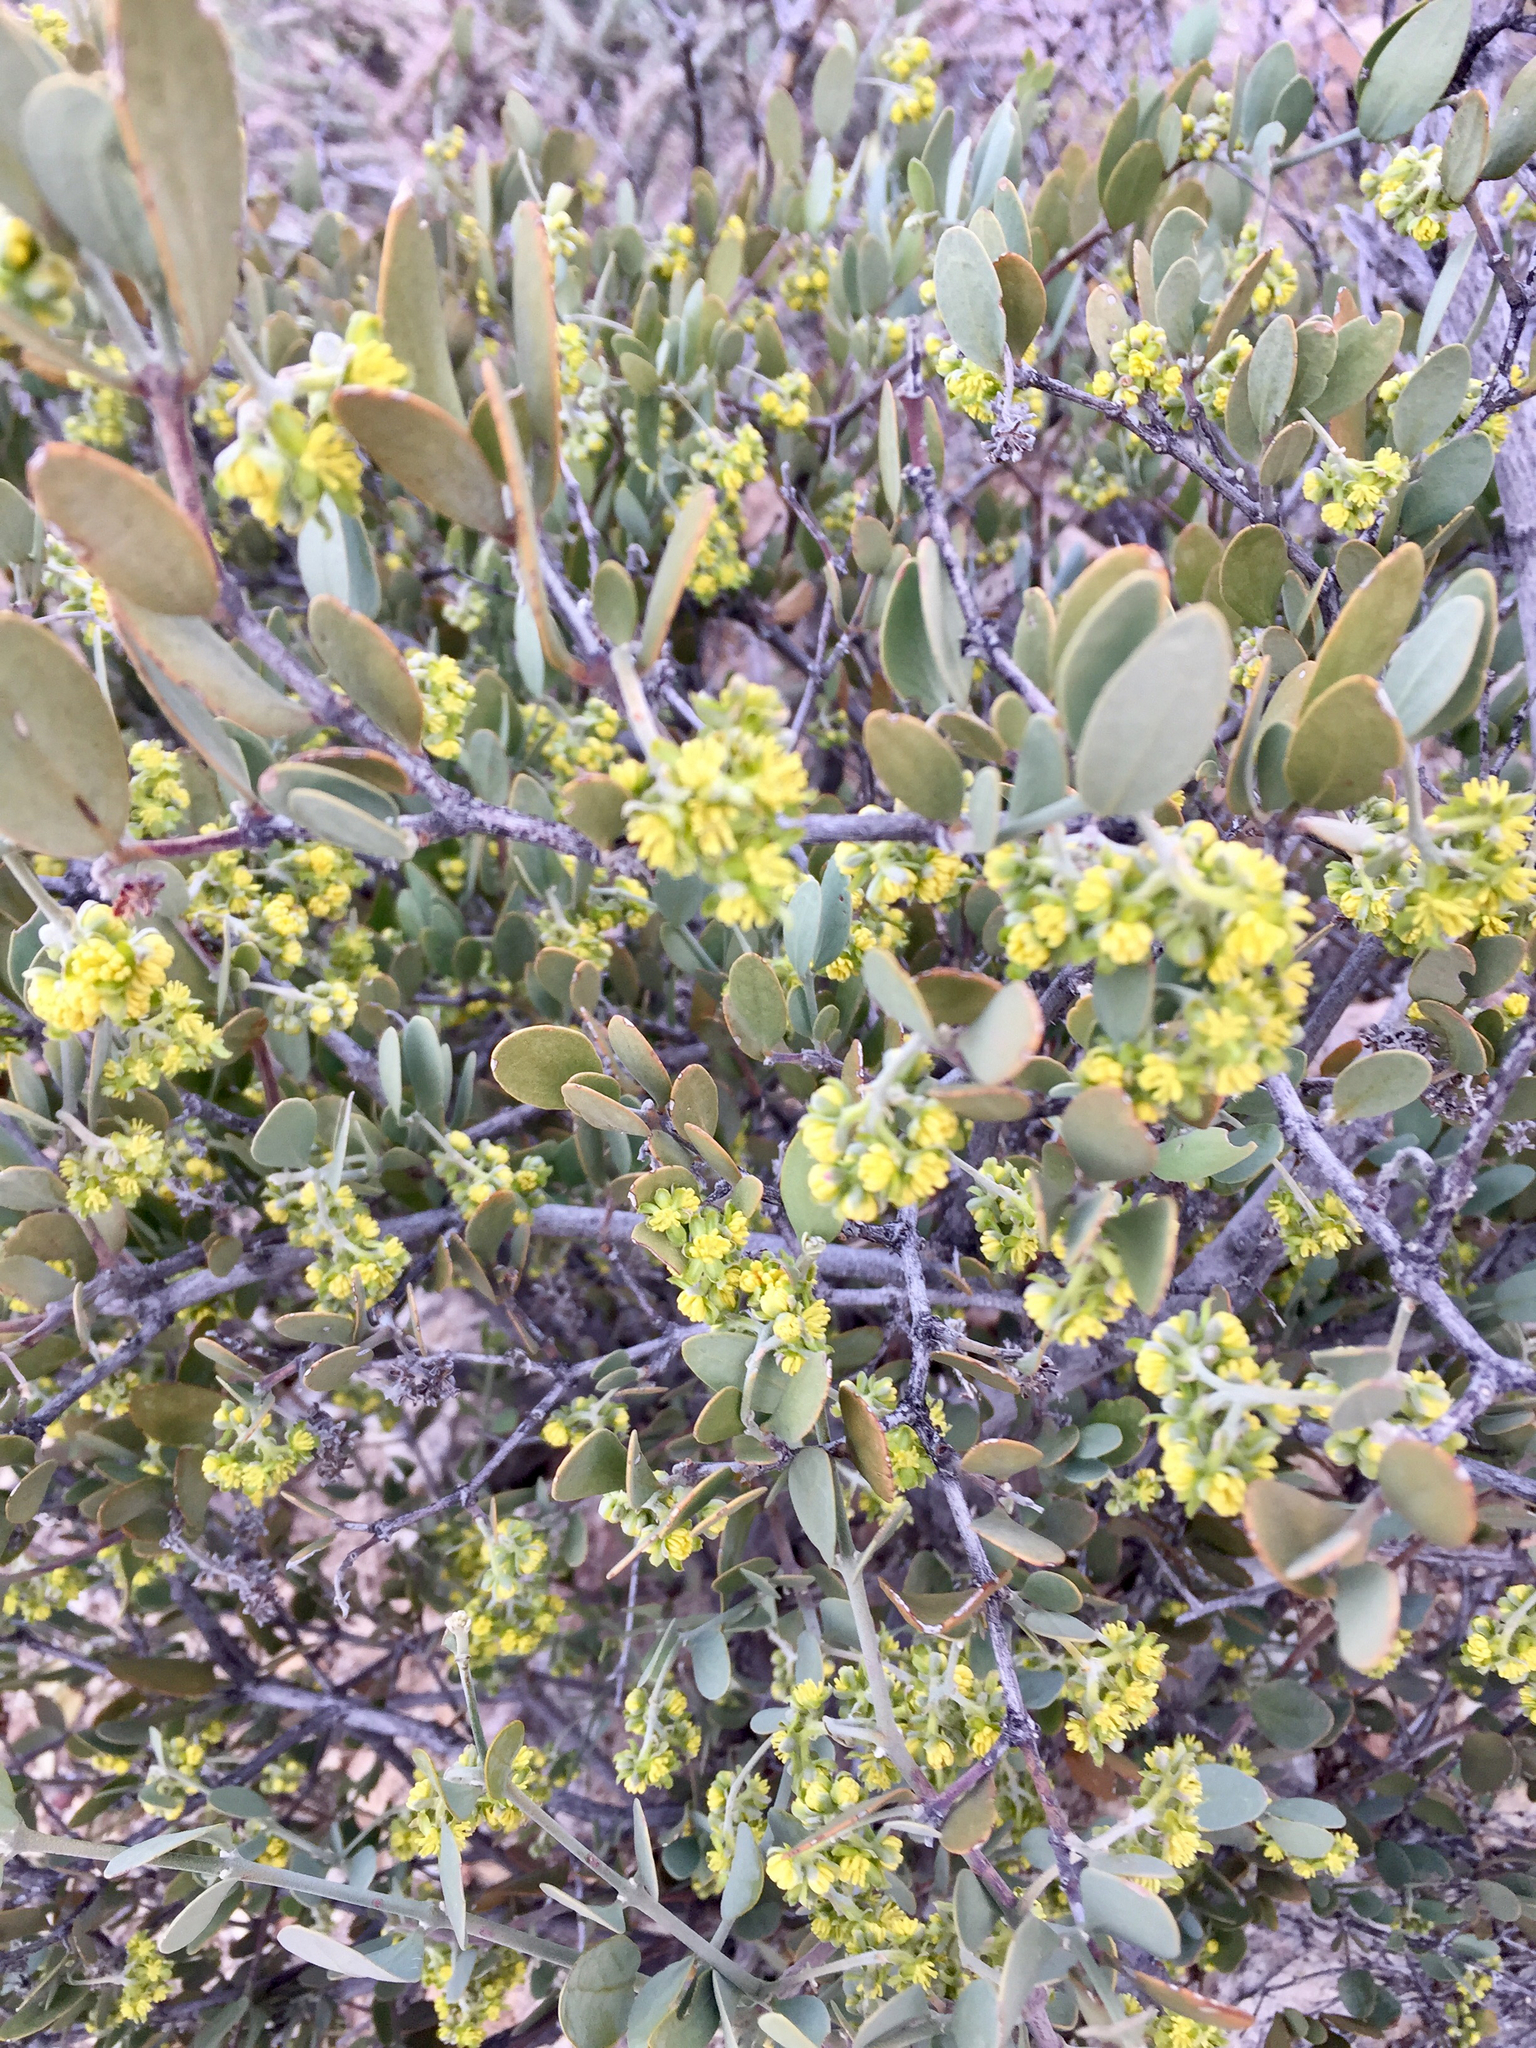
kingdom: Plantae
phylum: Tracheophyta
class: Magnoliopsida
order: Caryophyllales
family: Simmondsiaceae
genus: Simmondsia
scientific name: Simmondsia chinensis
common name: Jojoba
